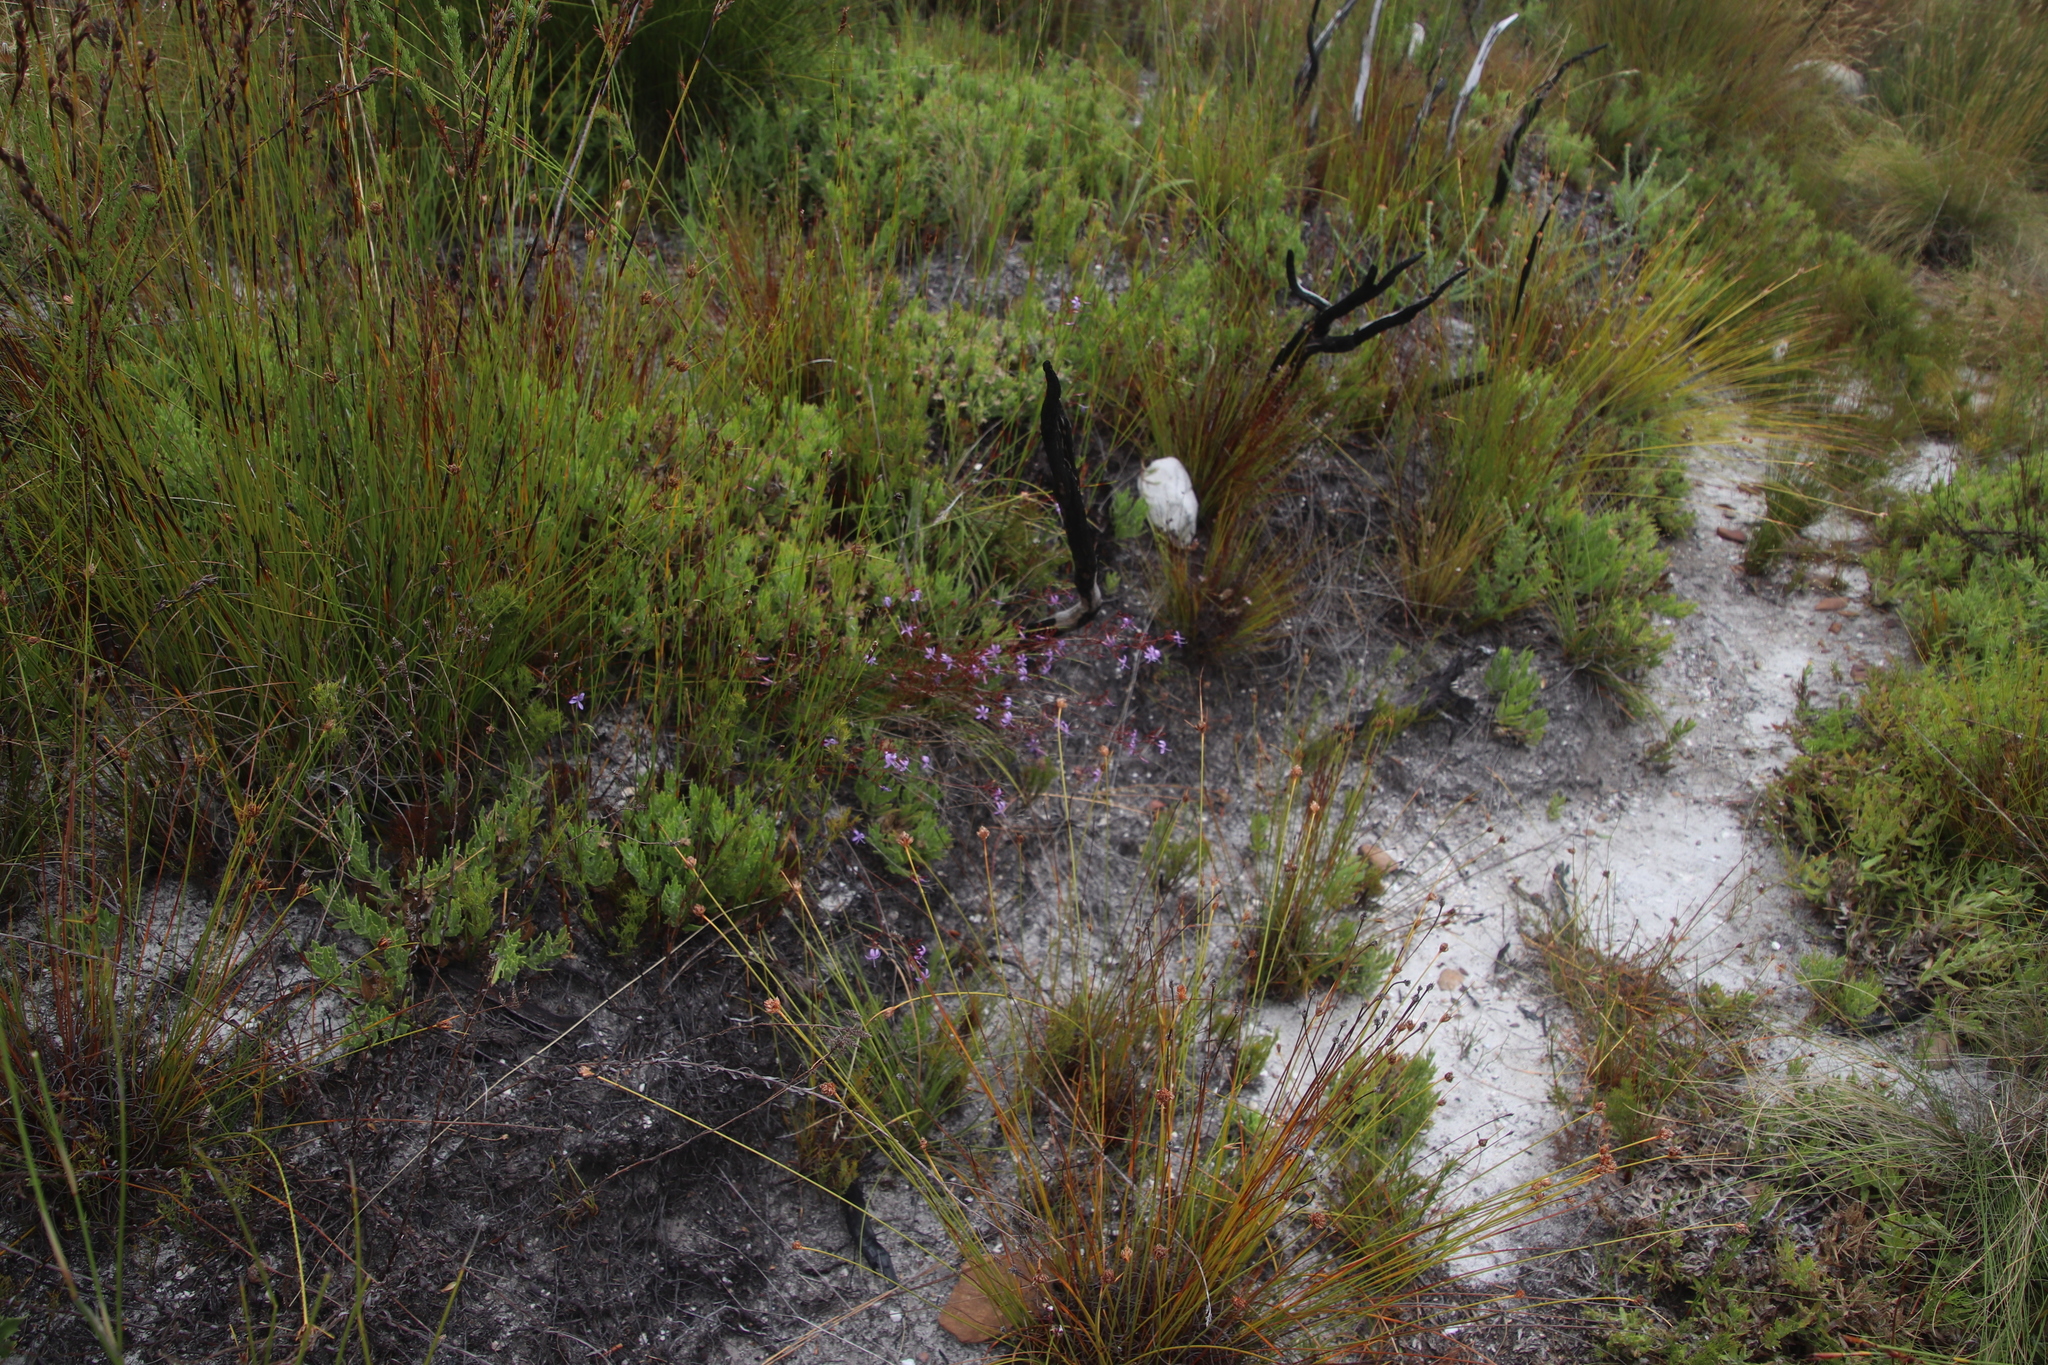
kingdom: Plantae
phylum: Tracheophyta
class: Magnoliopsida
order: Asterales
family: Campanulaceae
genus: Prismatocarpus
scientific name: Prismatocarpus diffusus
